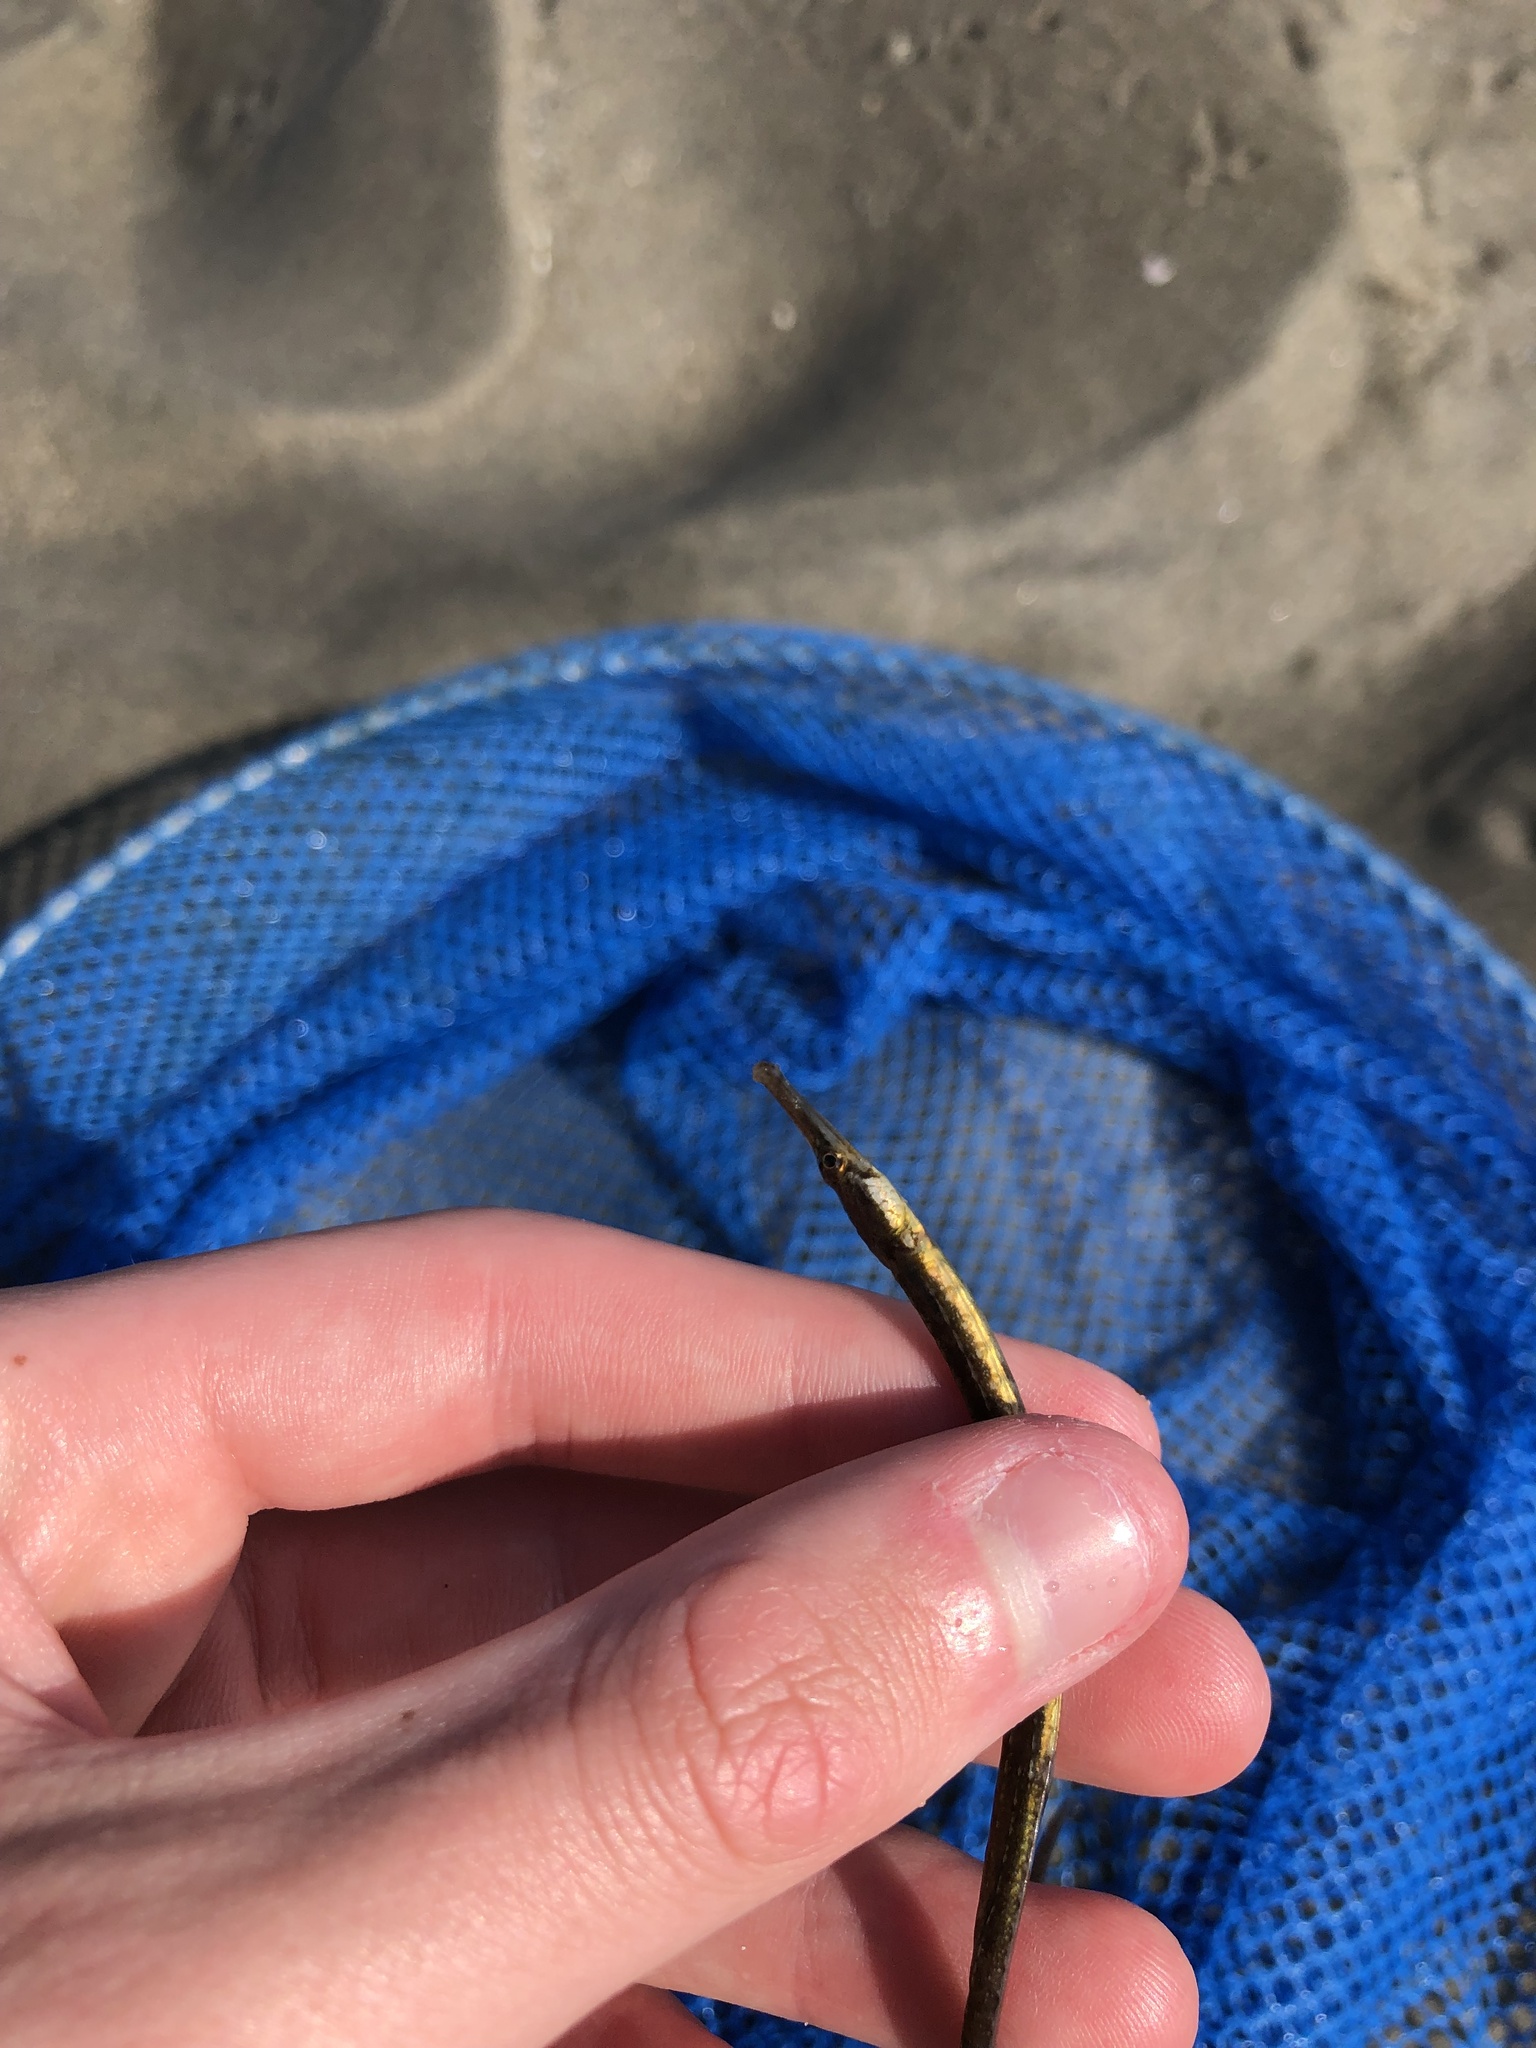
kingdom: Animalia
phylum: Chordata
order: Syngnathiformes
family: Syngnathidae
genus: Syngnathus
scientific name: Syngnathus fuscus
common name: Northern pipefish
